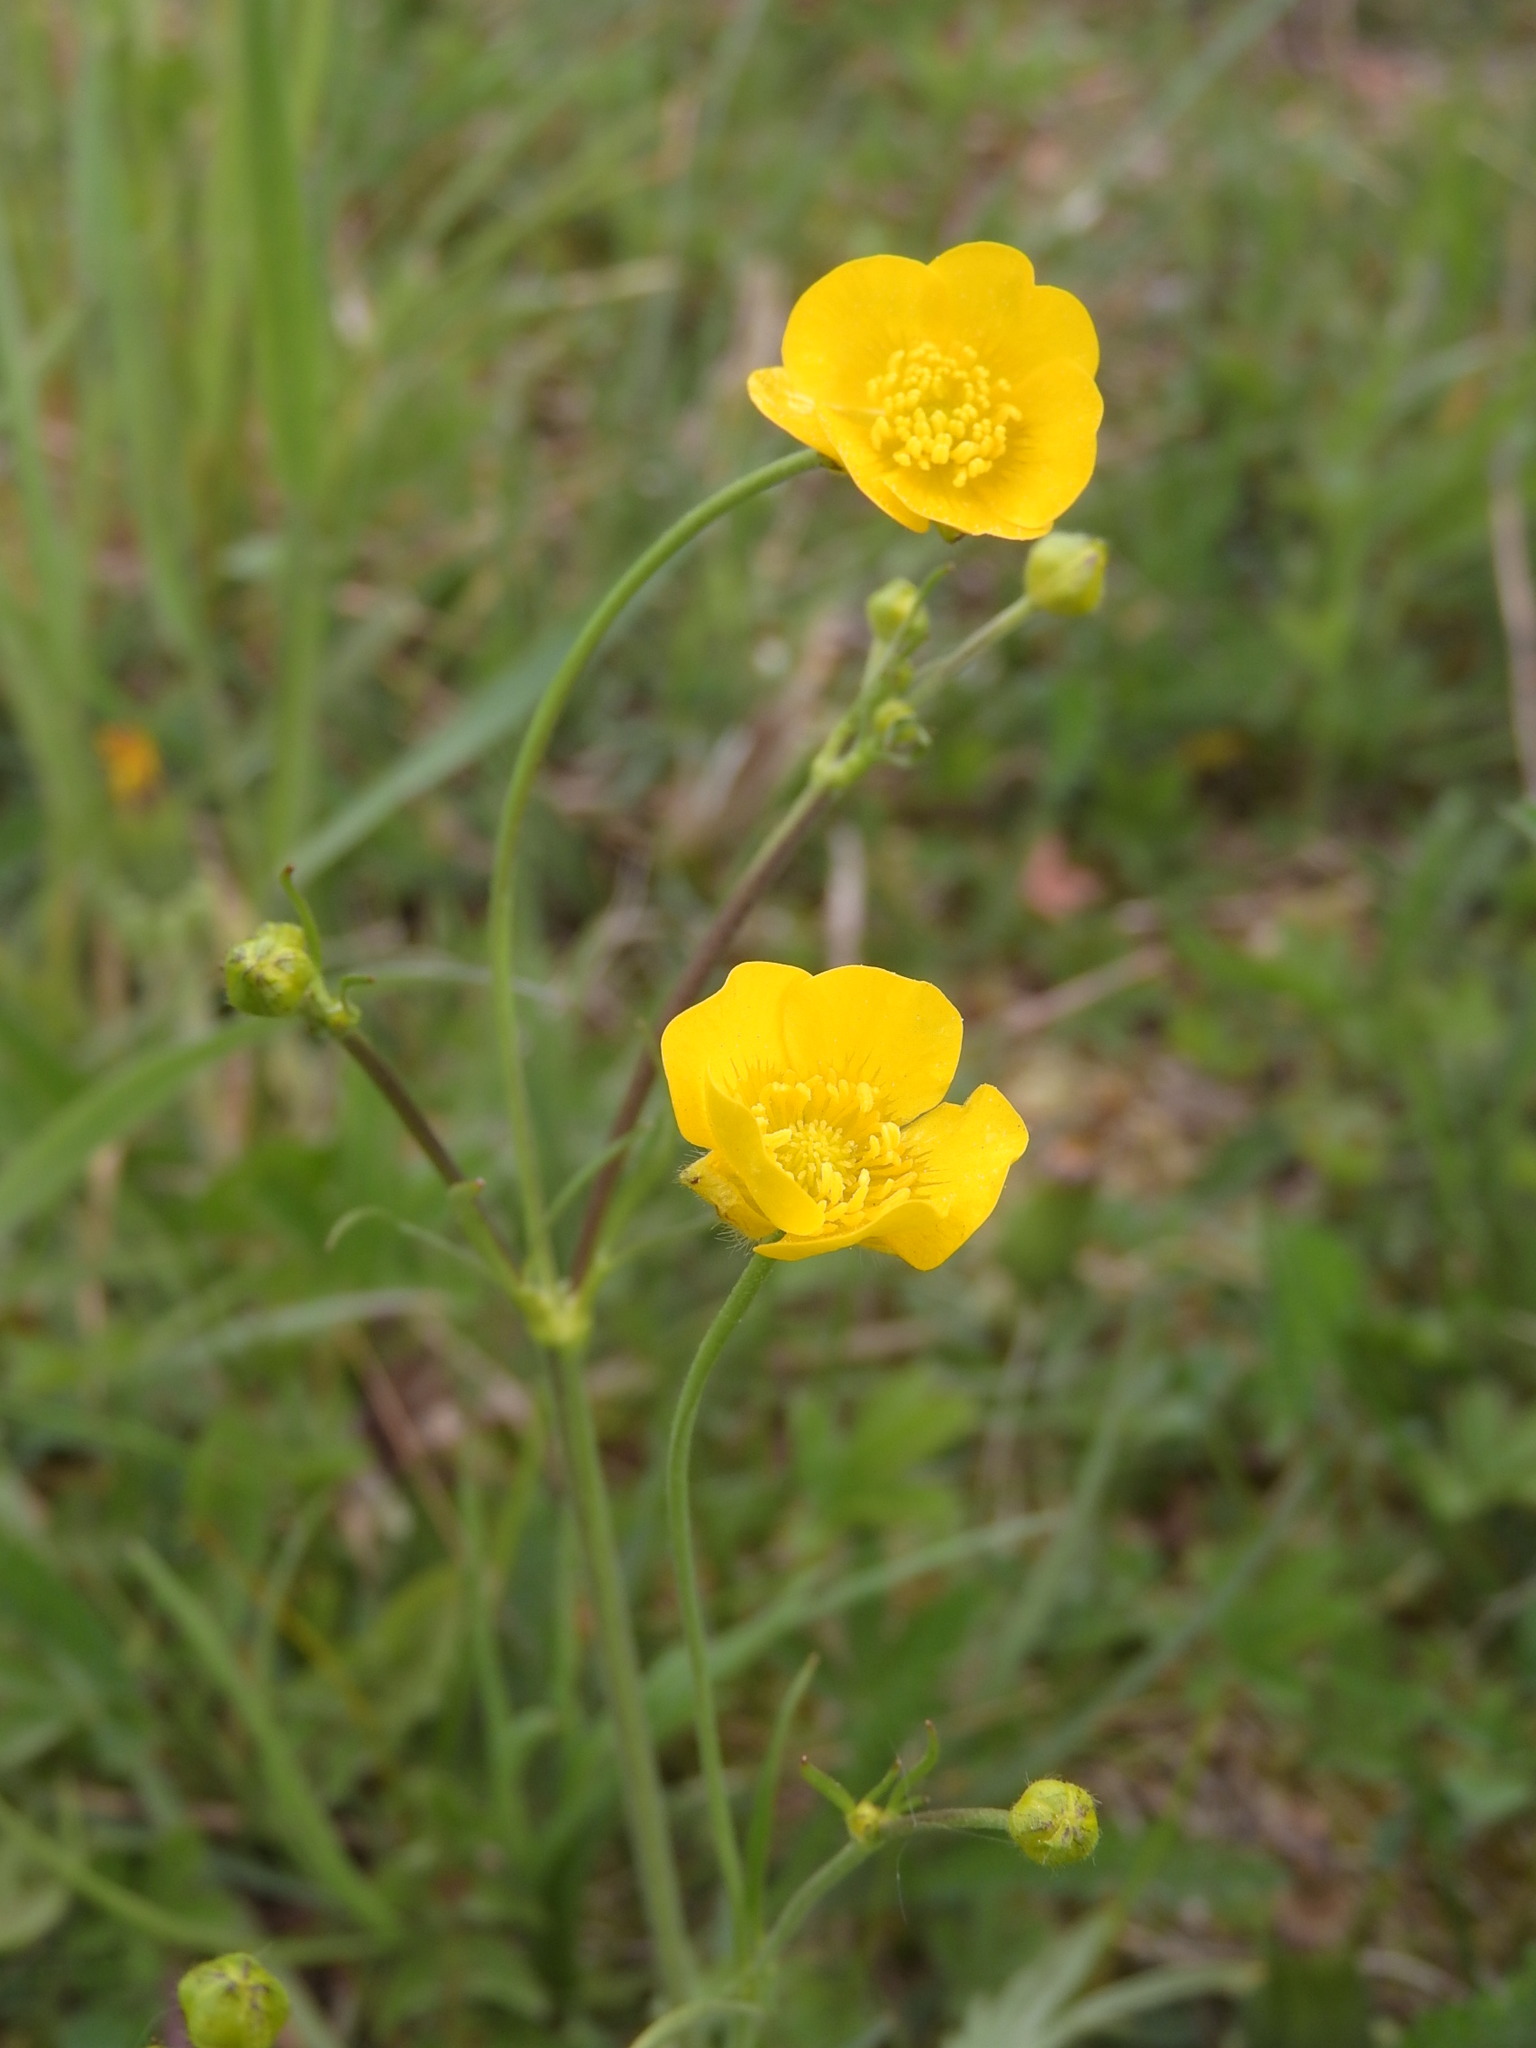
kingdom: Plantae
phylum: Tracheophyta
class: Magnoliopsida
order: Ranunculales
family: Ranunculaceae
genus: Ranunculus
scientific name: Ranunculus acris
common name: Meadow buttercup
